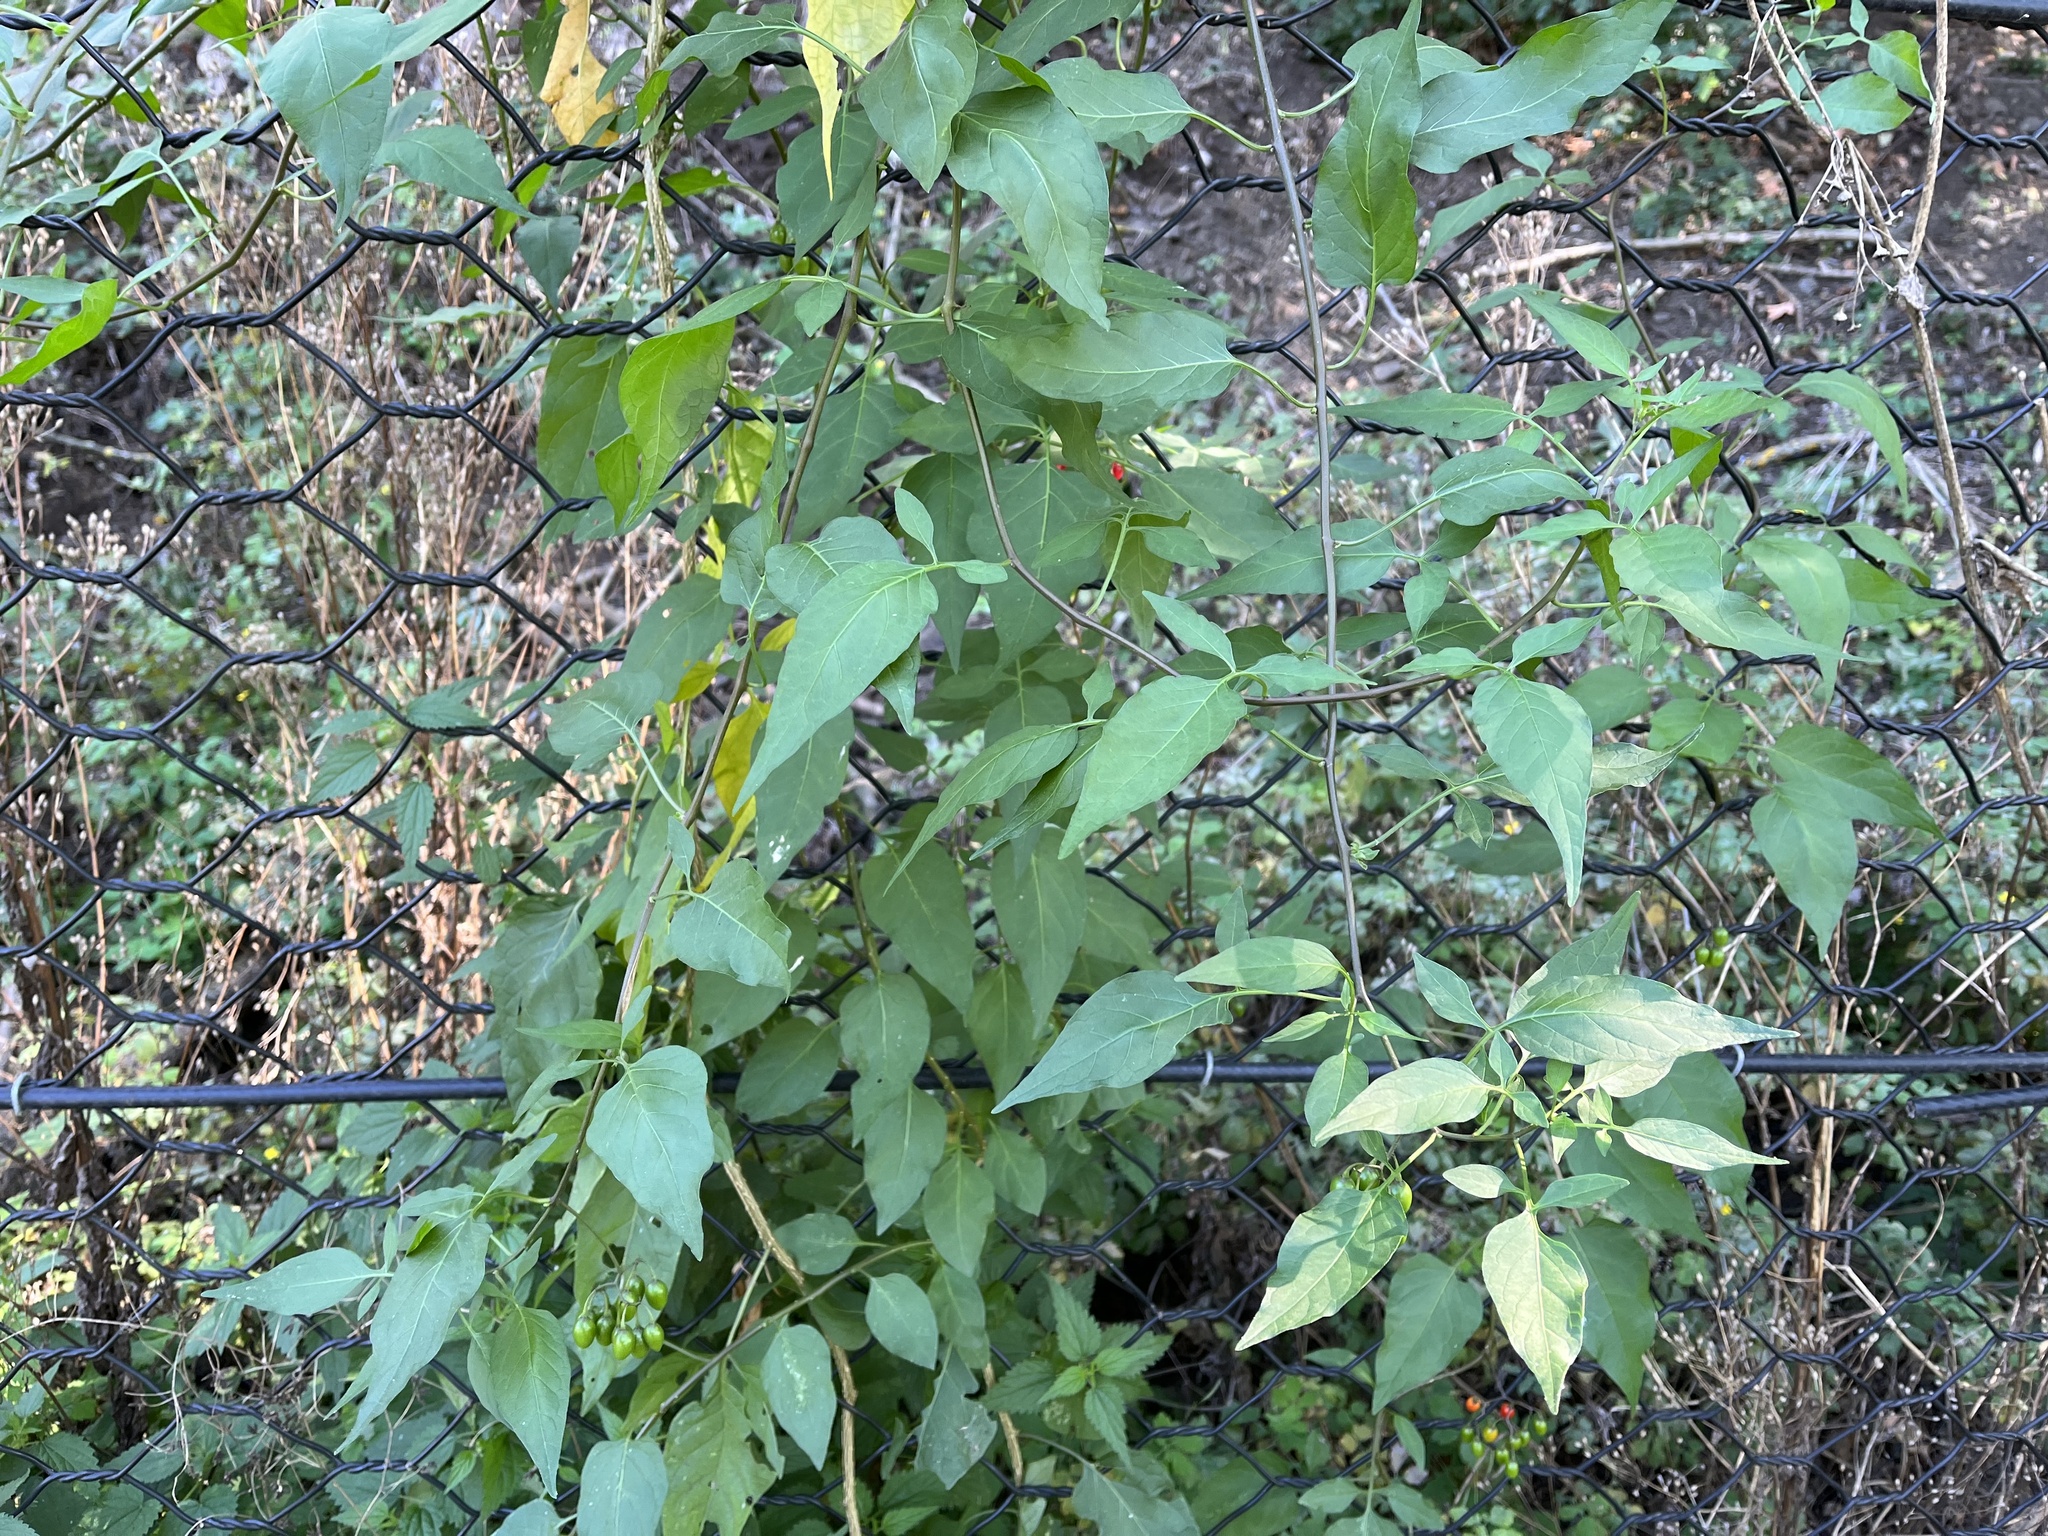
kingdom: Plantae
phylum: Tracheophyta
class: Magnoliopsida
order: Solanales
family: Solanaceae
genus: Solanum
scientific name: Solanum dulcamara
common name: Climbing nightshade
